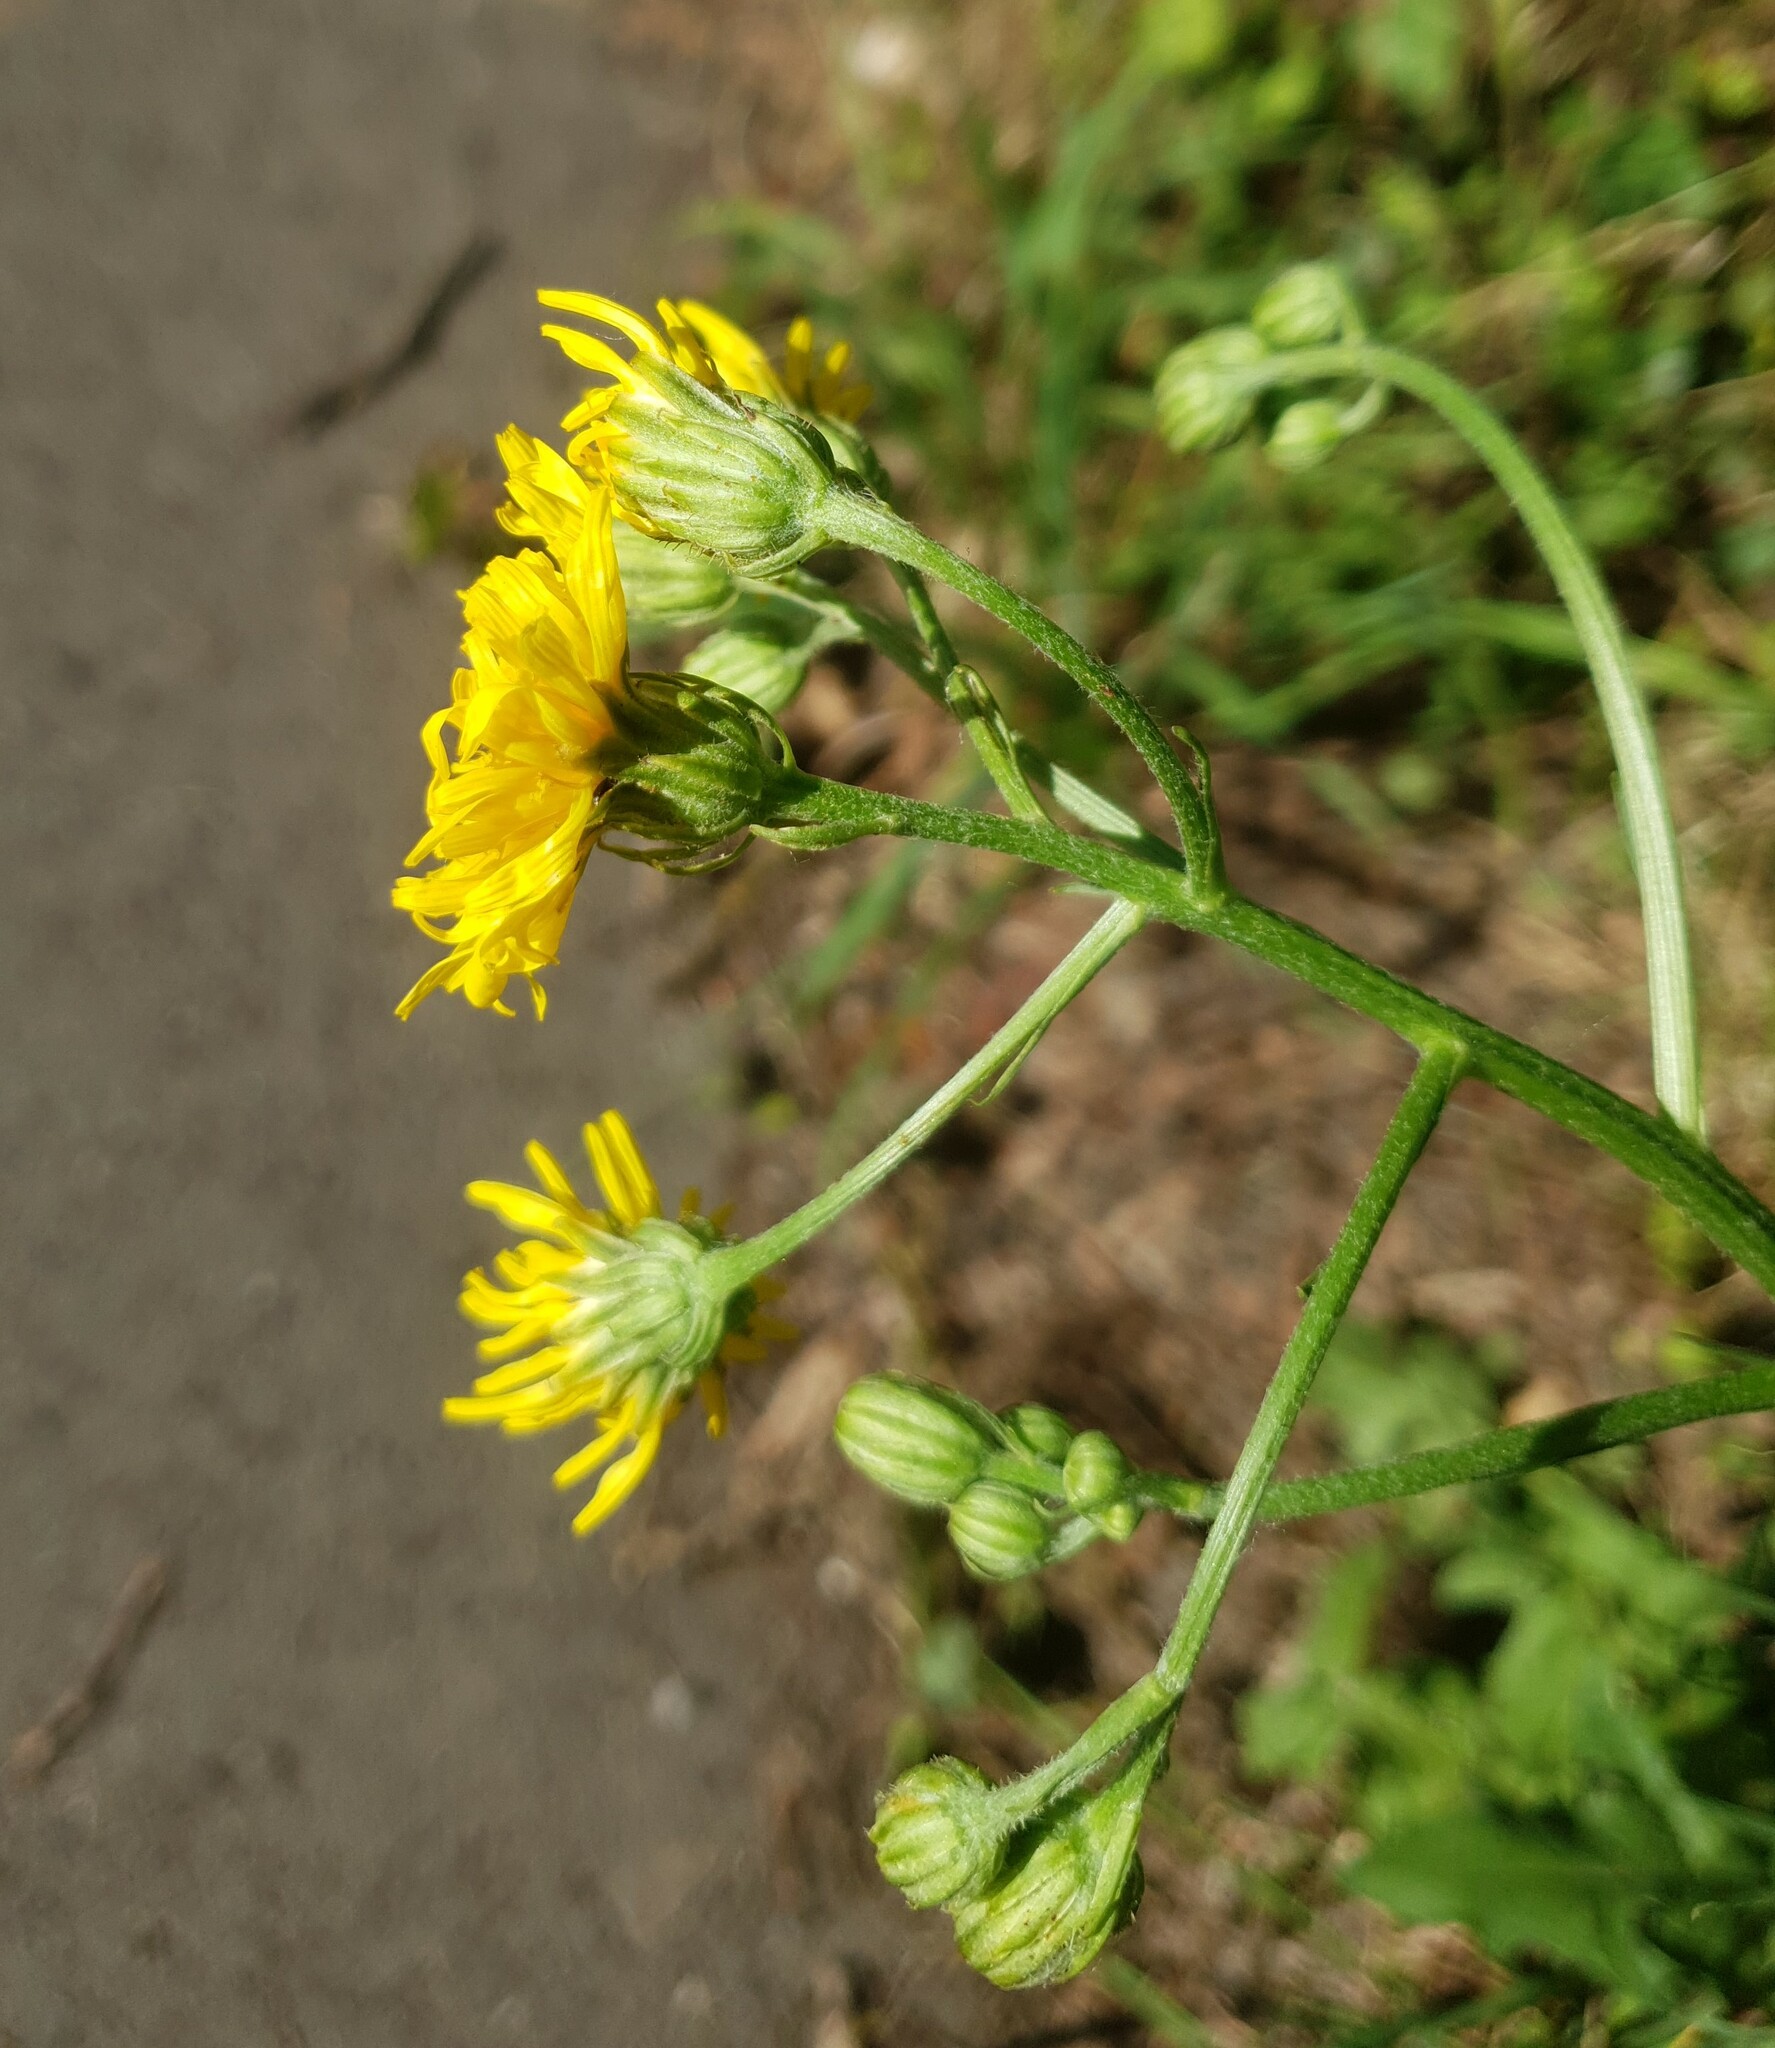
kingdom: Plantae
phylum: Tracheophyta
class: Magnoliopsida
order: Asterales
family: Asteraceae
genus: Crepis
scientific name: Crepis biennis
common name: Rough hawk's-beard
